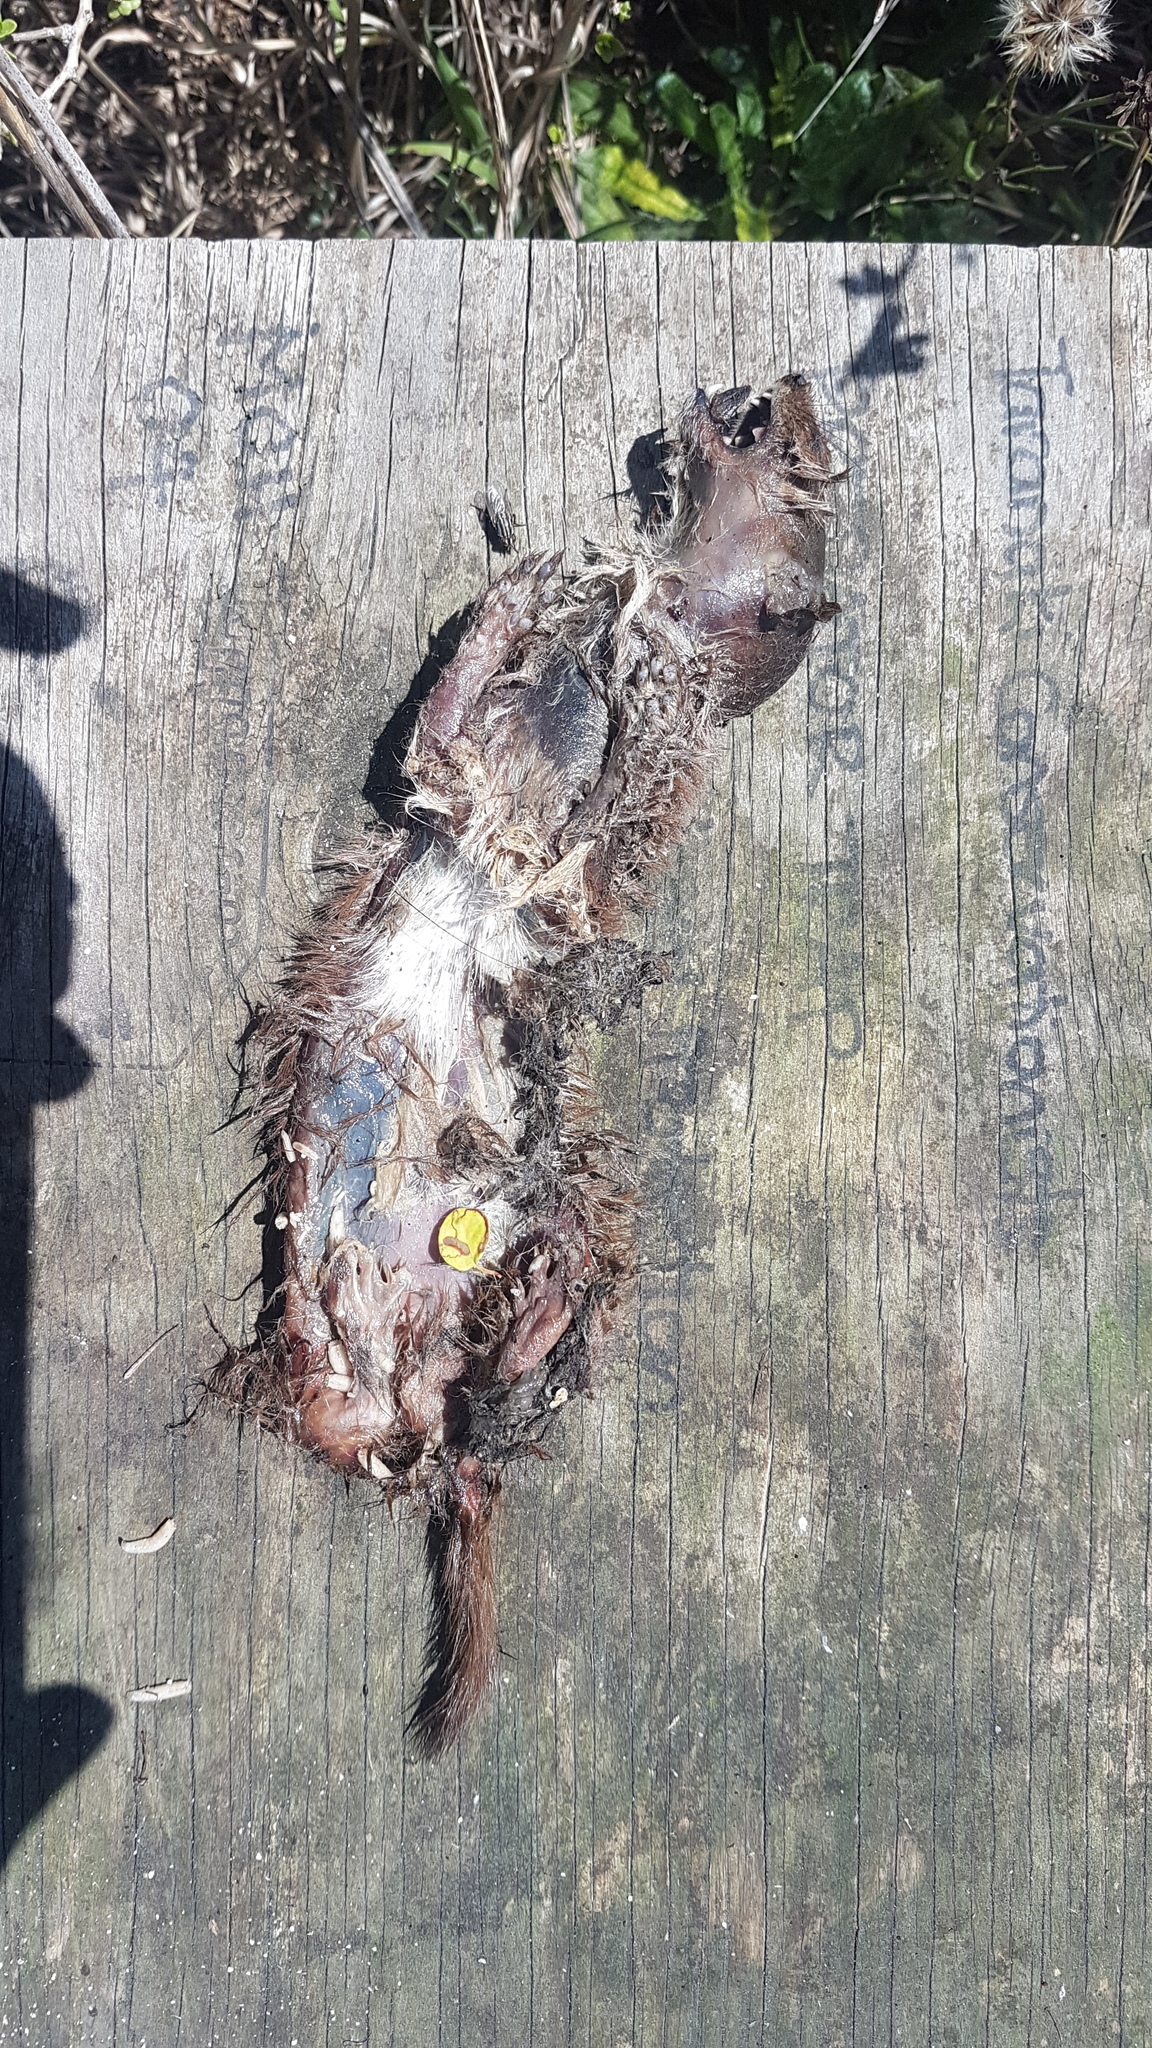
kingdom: Animalia
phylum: Chordata
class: Mammalia
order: Carnivora
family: Mustelidae
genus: Mustela
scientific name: Mustela nivalis
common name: Least weasel
